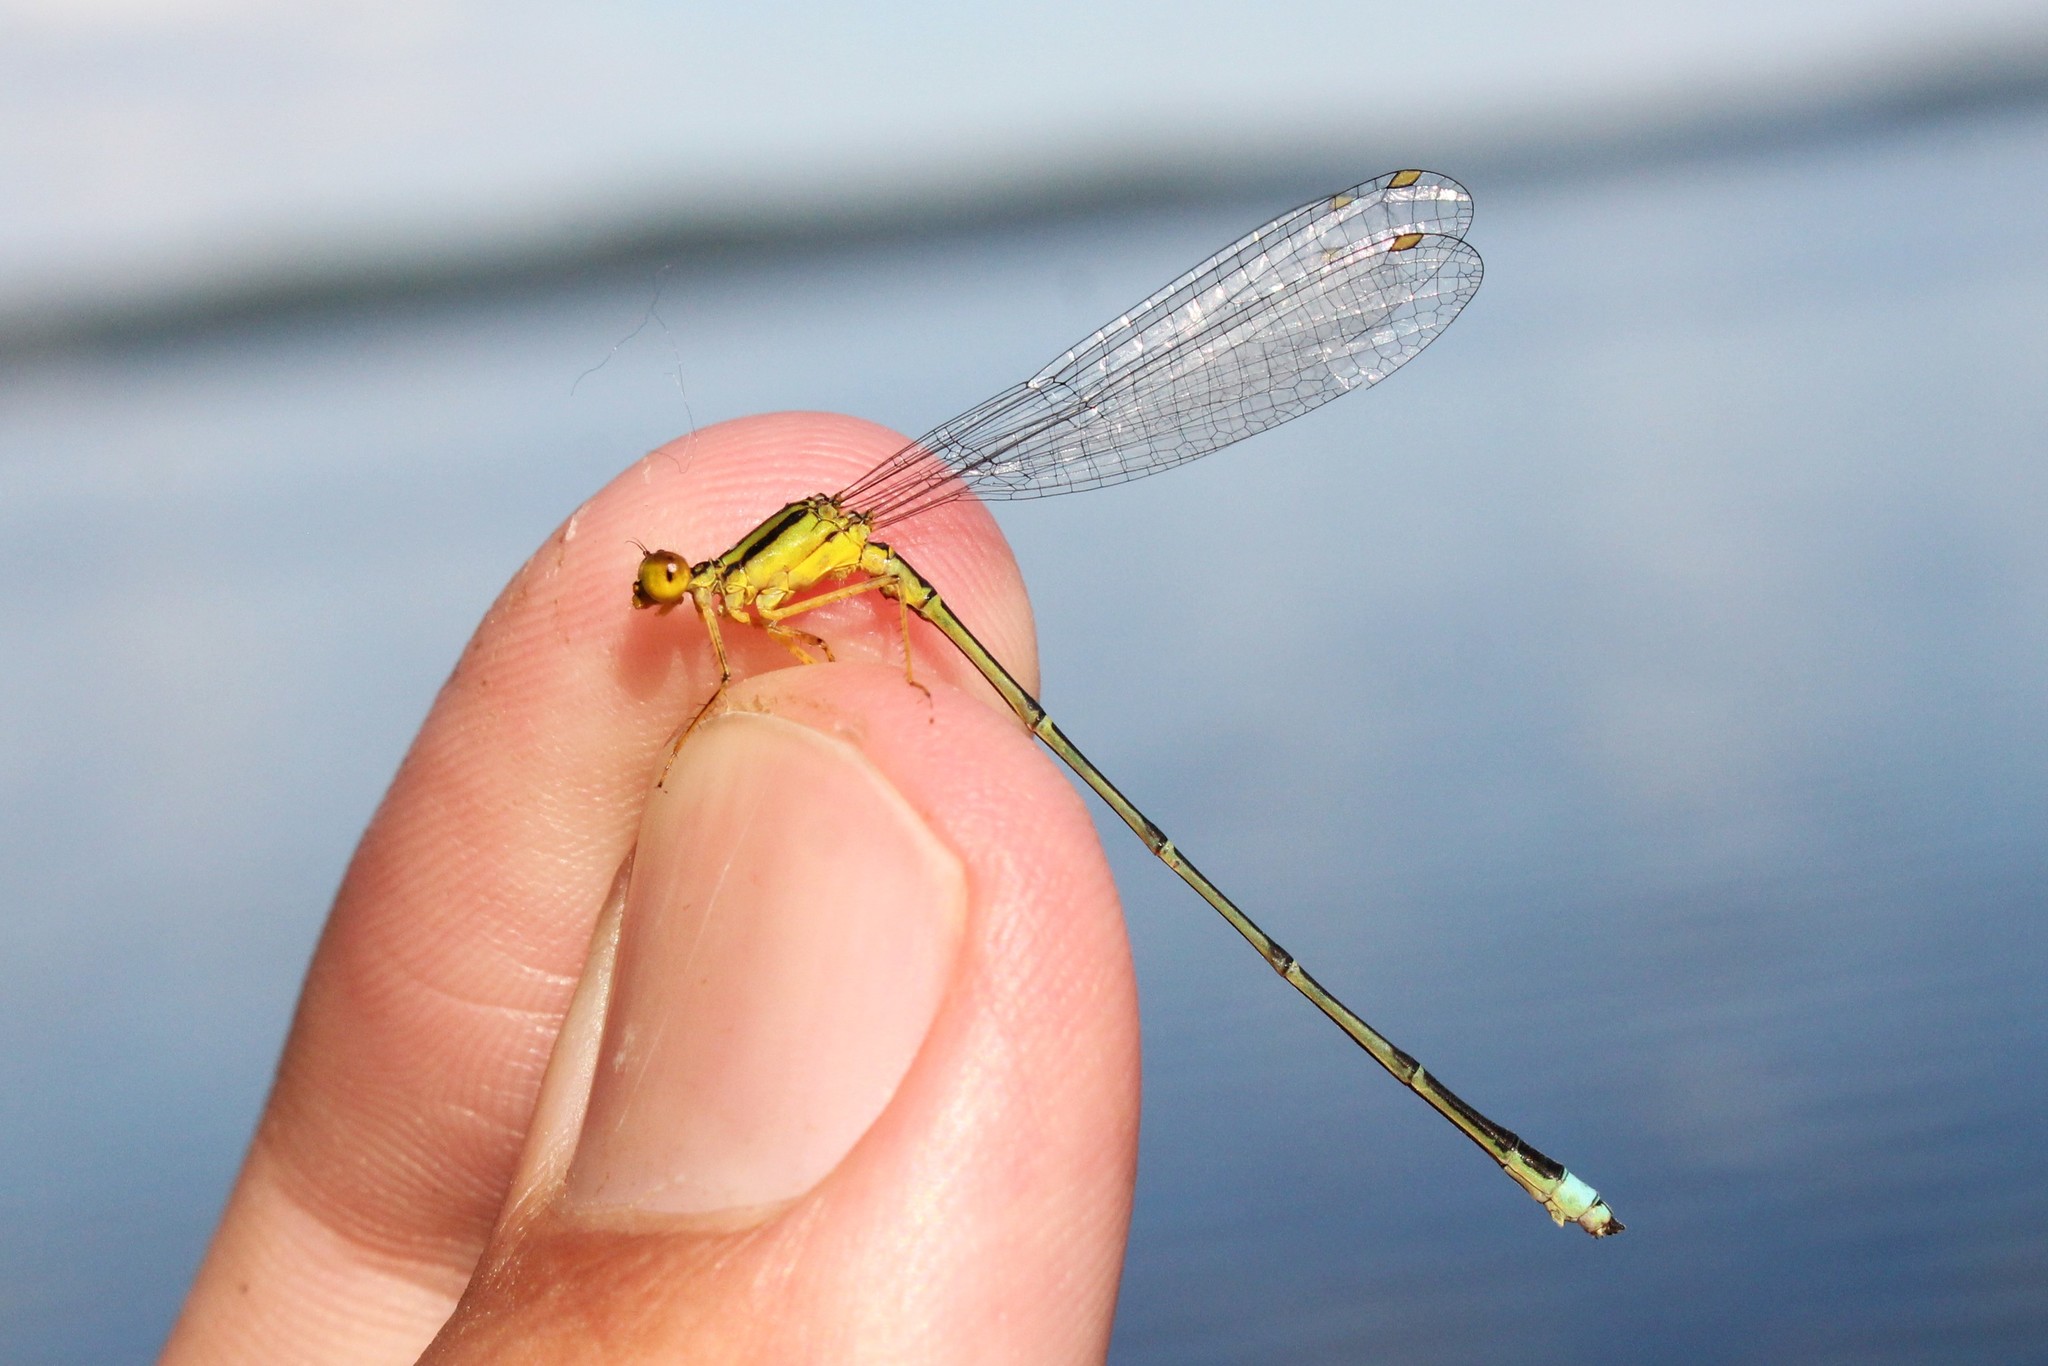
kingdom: Animalia
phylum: Arthropoda
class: Insecta
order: Odonata
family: Coenagrionidae
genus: Enallagma
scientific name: Enallagma vesperum
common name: Vesper bluet
